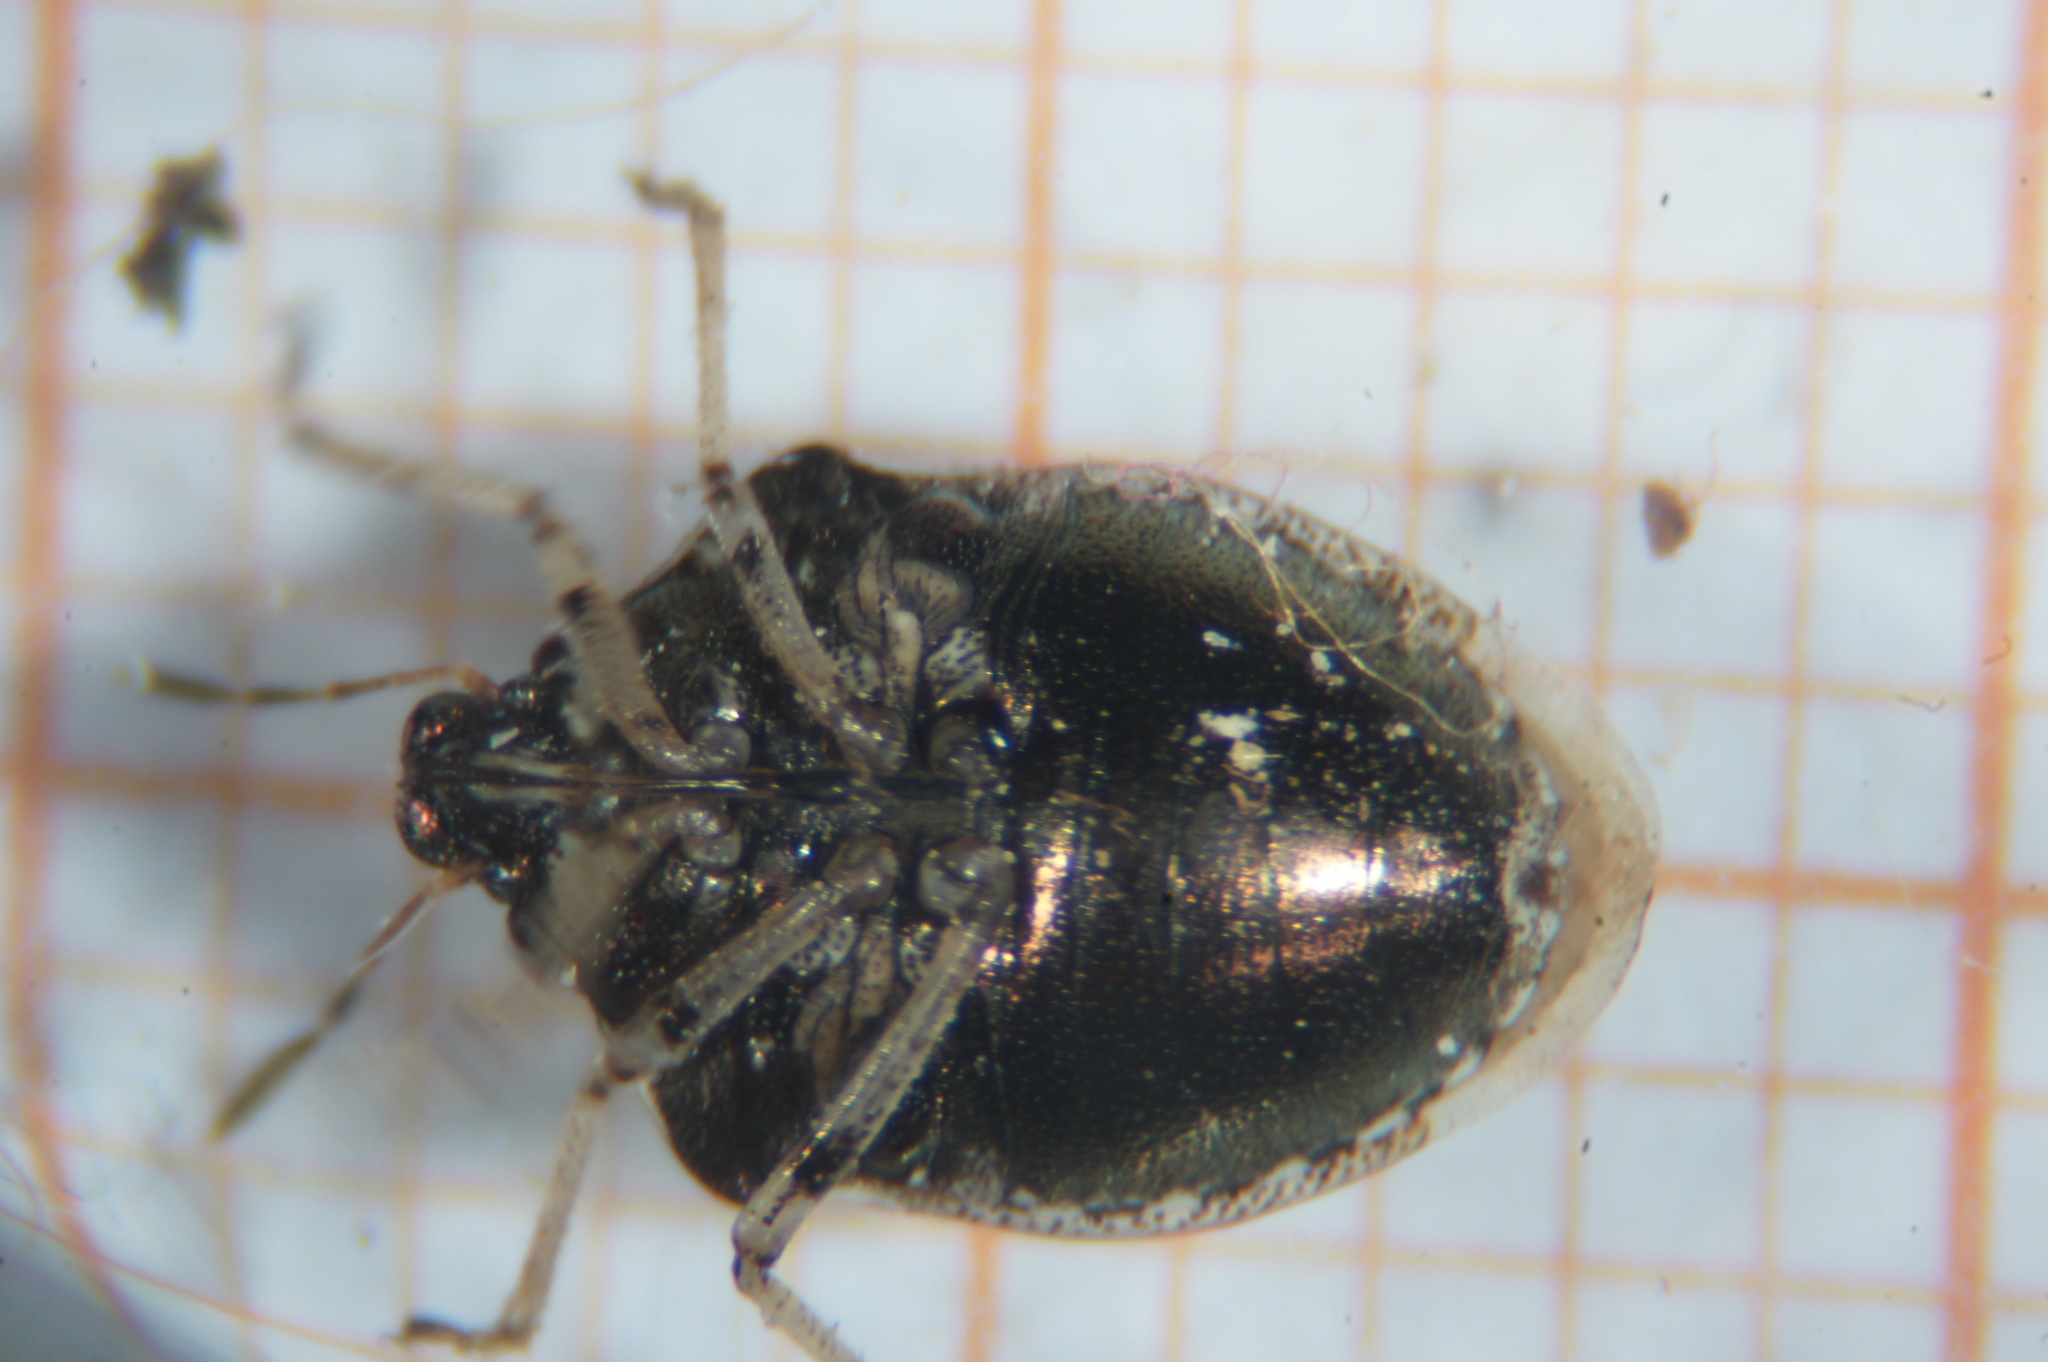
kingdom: Animalia
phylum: Arthropoda
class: Insecta
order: Hemiptera
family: Pentatomidae
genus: Eysarcoris
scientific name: Eysarcoris venustissimus
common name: Woundwort shieldbug
